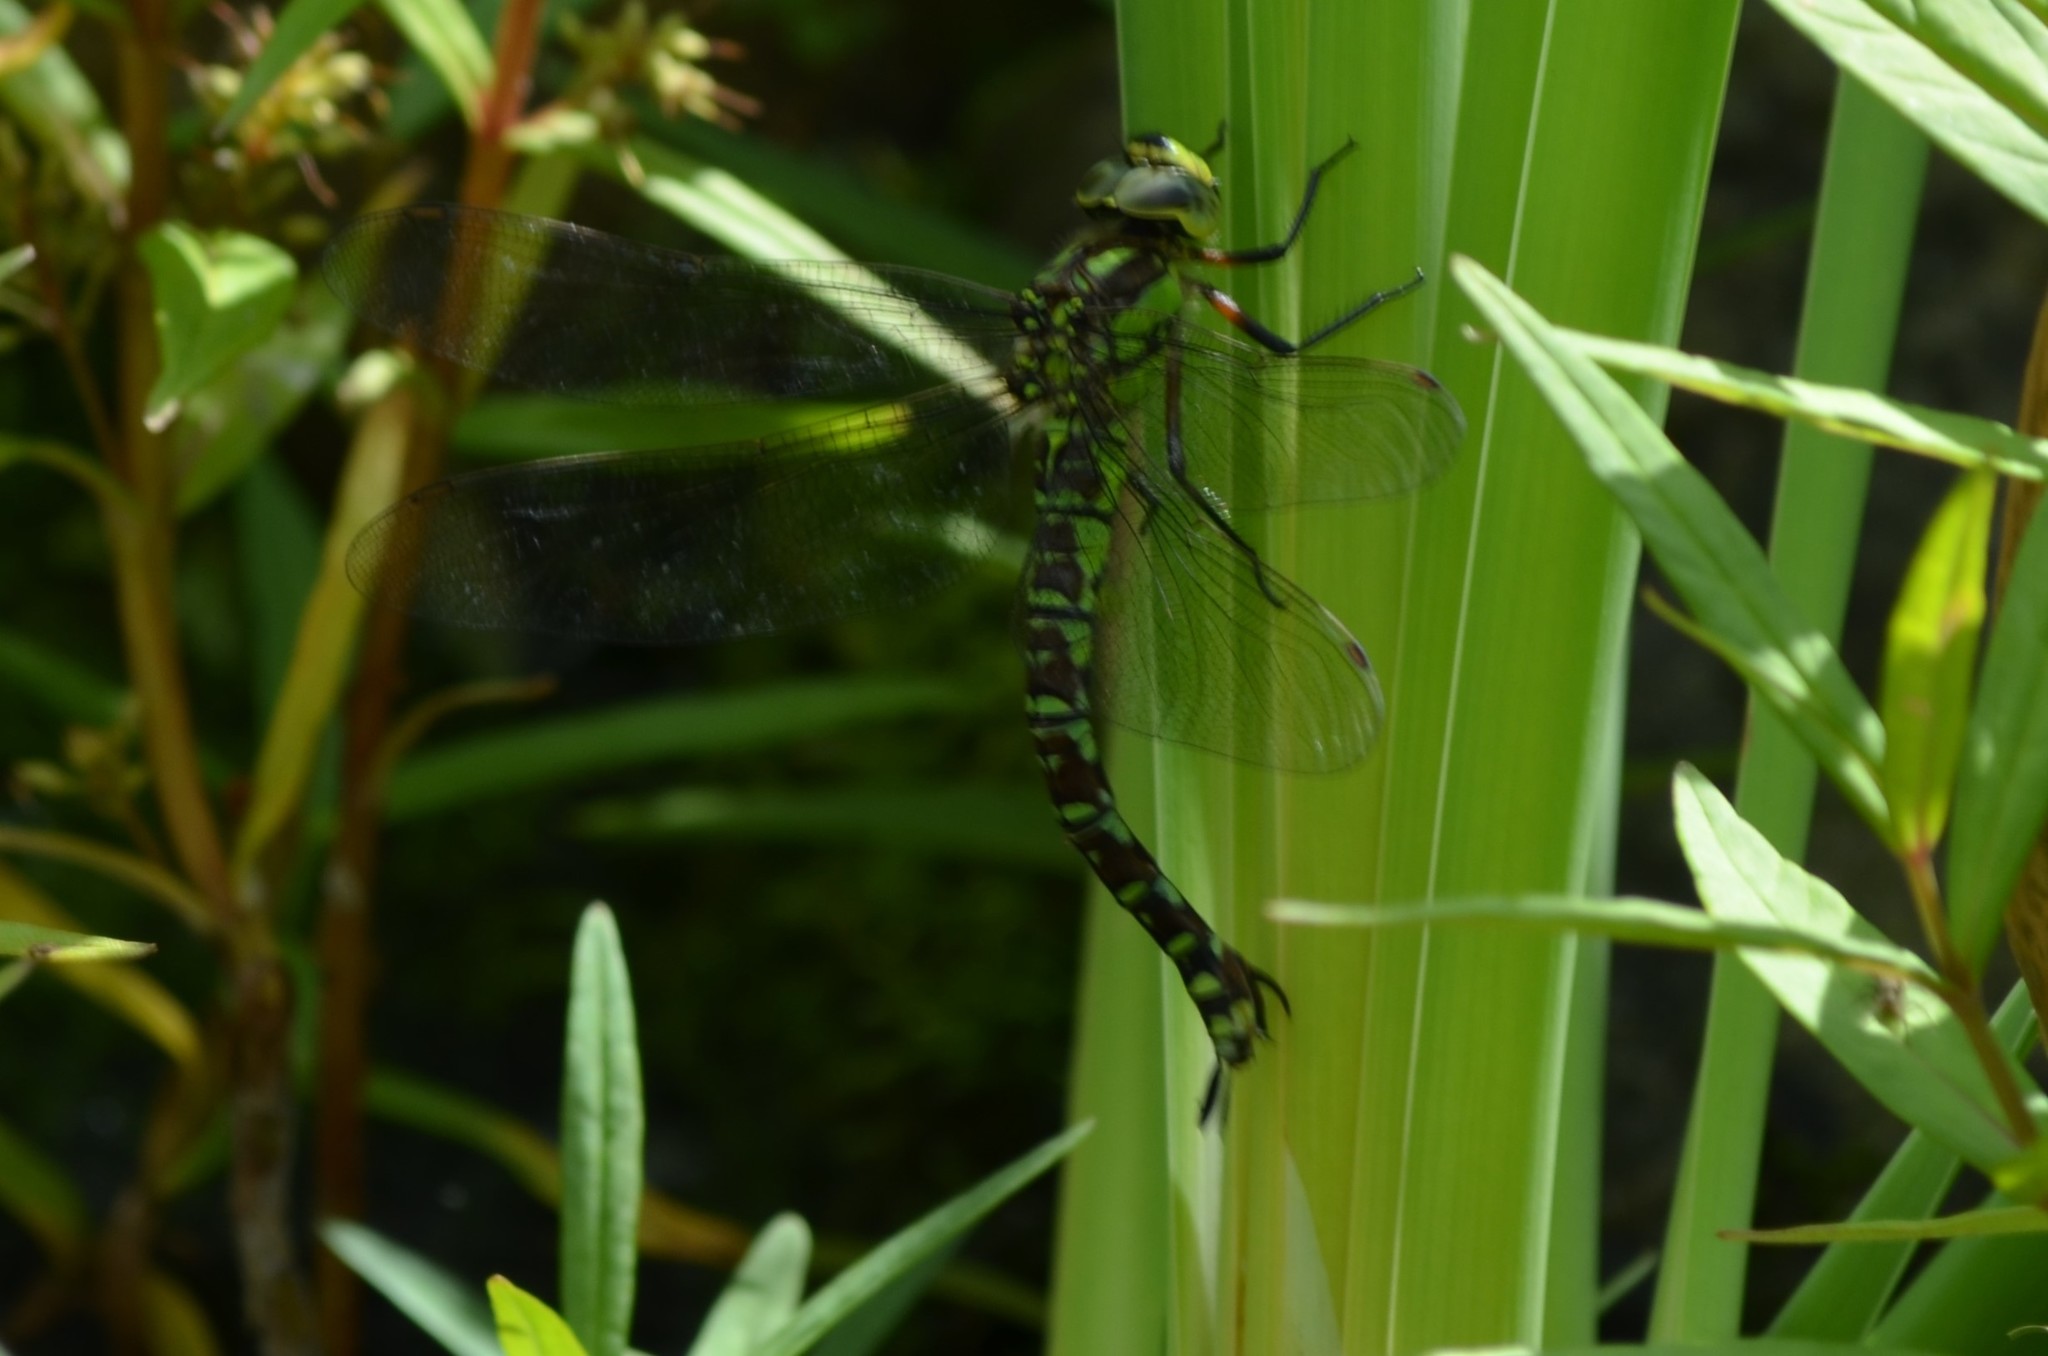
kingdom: Animalia
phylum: Arthropoda
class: Insecta
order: Odonata
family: Aeshnidae
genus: Aeshna
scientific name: Aeshna cyanea
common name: Southern hawker
